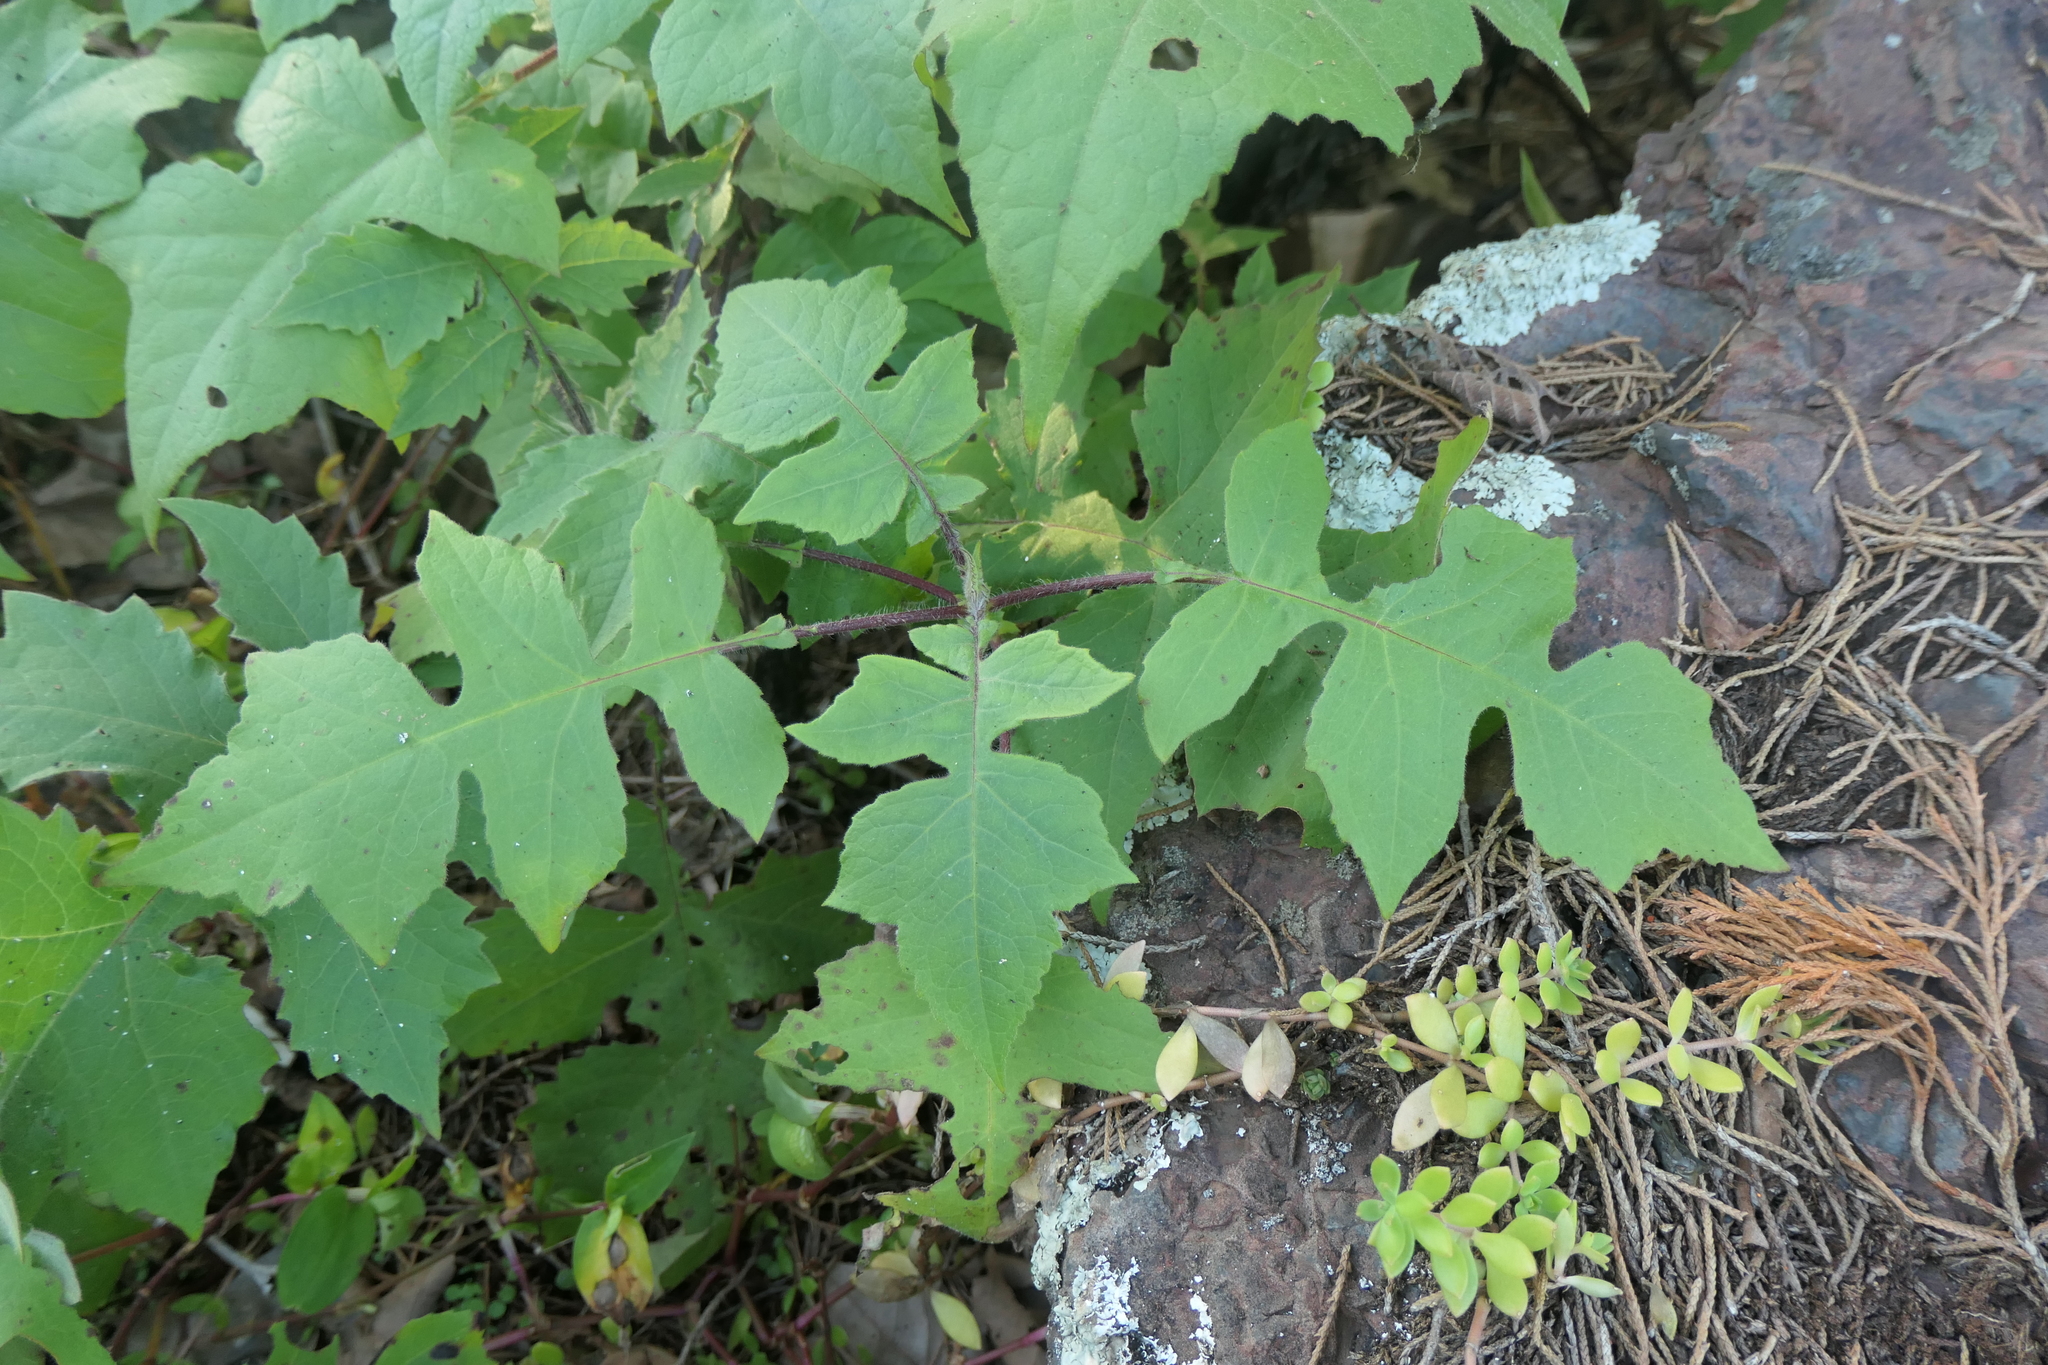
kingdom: Plantae
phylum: Tracheophyta
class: Magnoliopsida
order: Asterales
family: Asteraceae
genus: Polymnia
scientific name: Polymnia canadensis
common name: Pale-flowered leafcup
